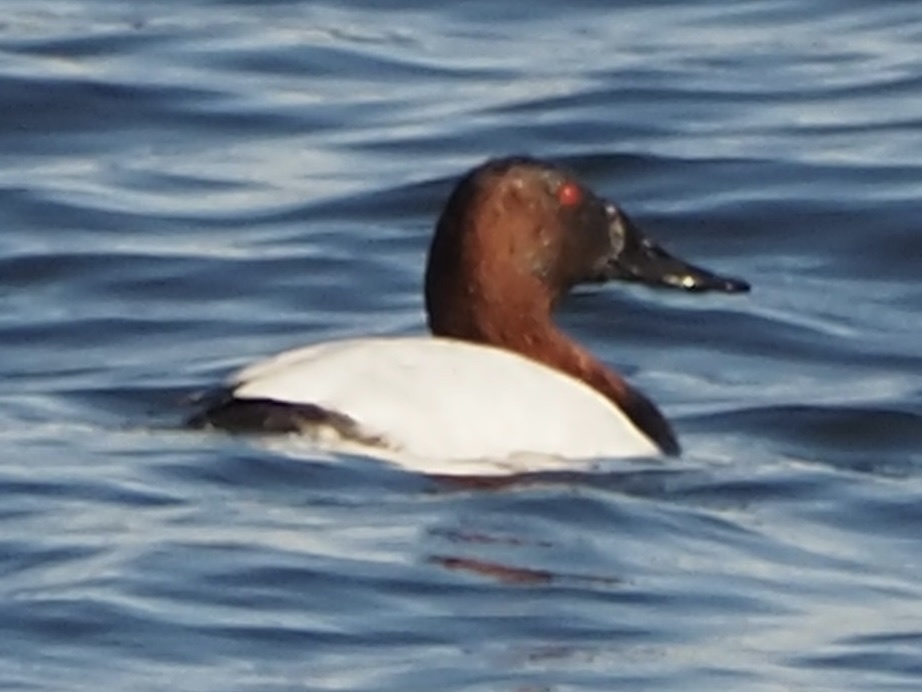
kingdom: Animalia
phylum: Chordata
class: Aves
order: Anseriformes
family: Anatidae
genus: Aythya
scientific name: Aythya valisineria
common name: Canvasback
